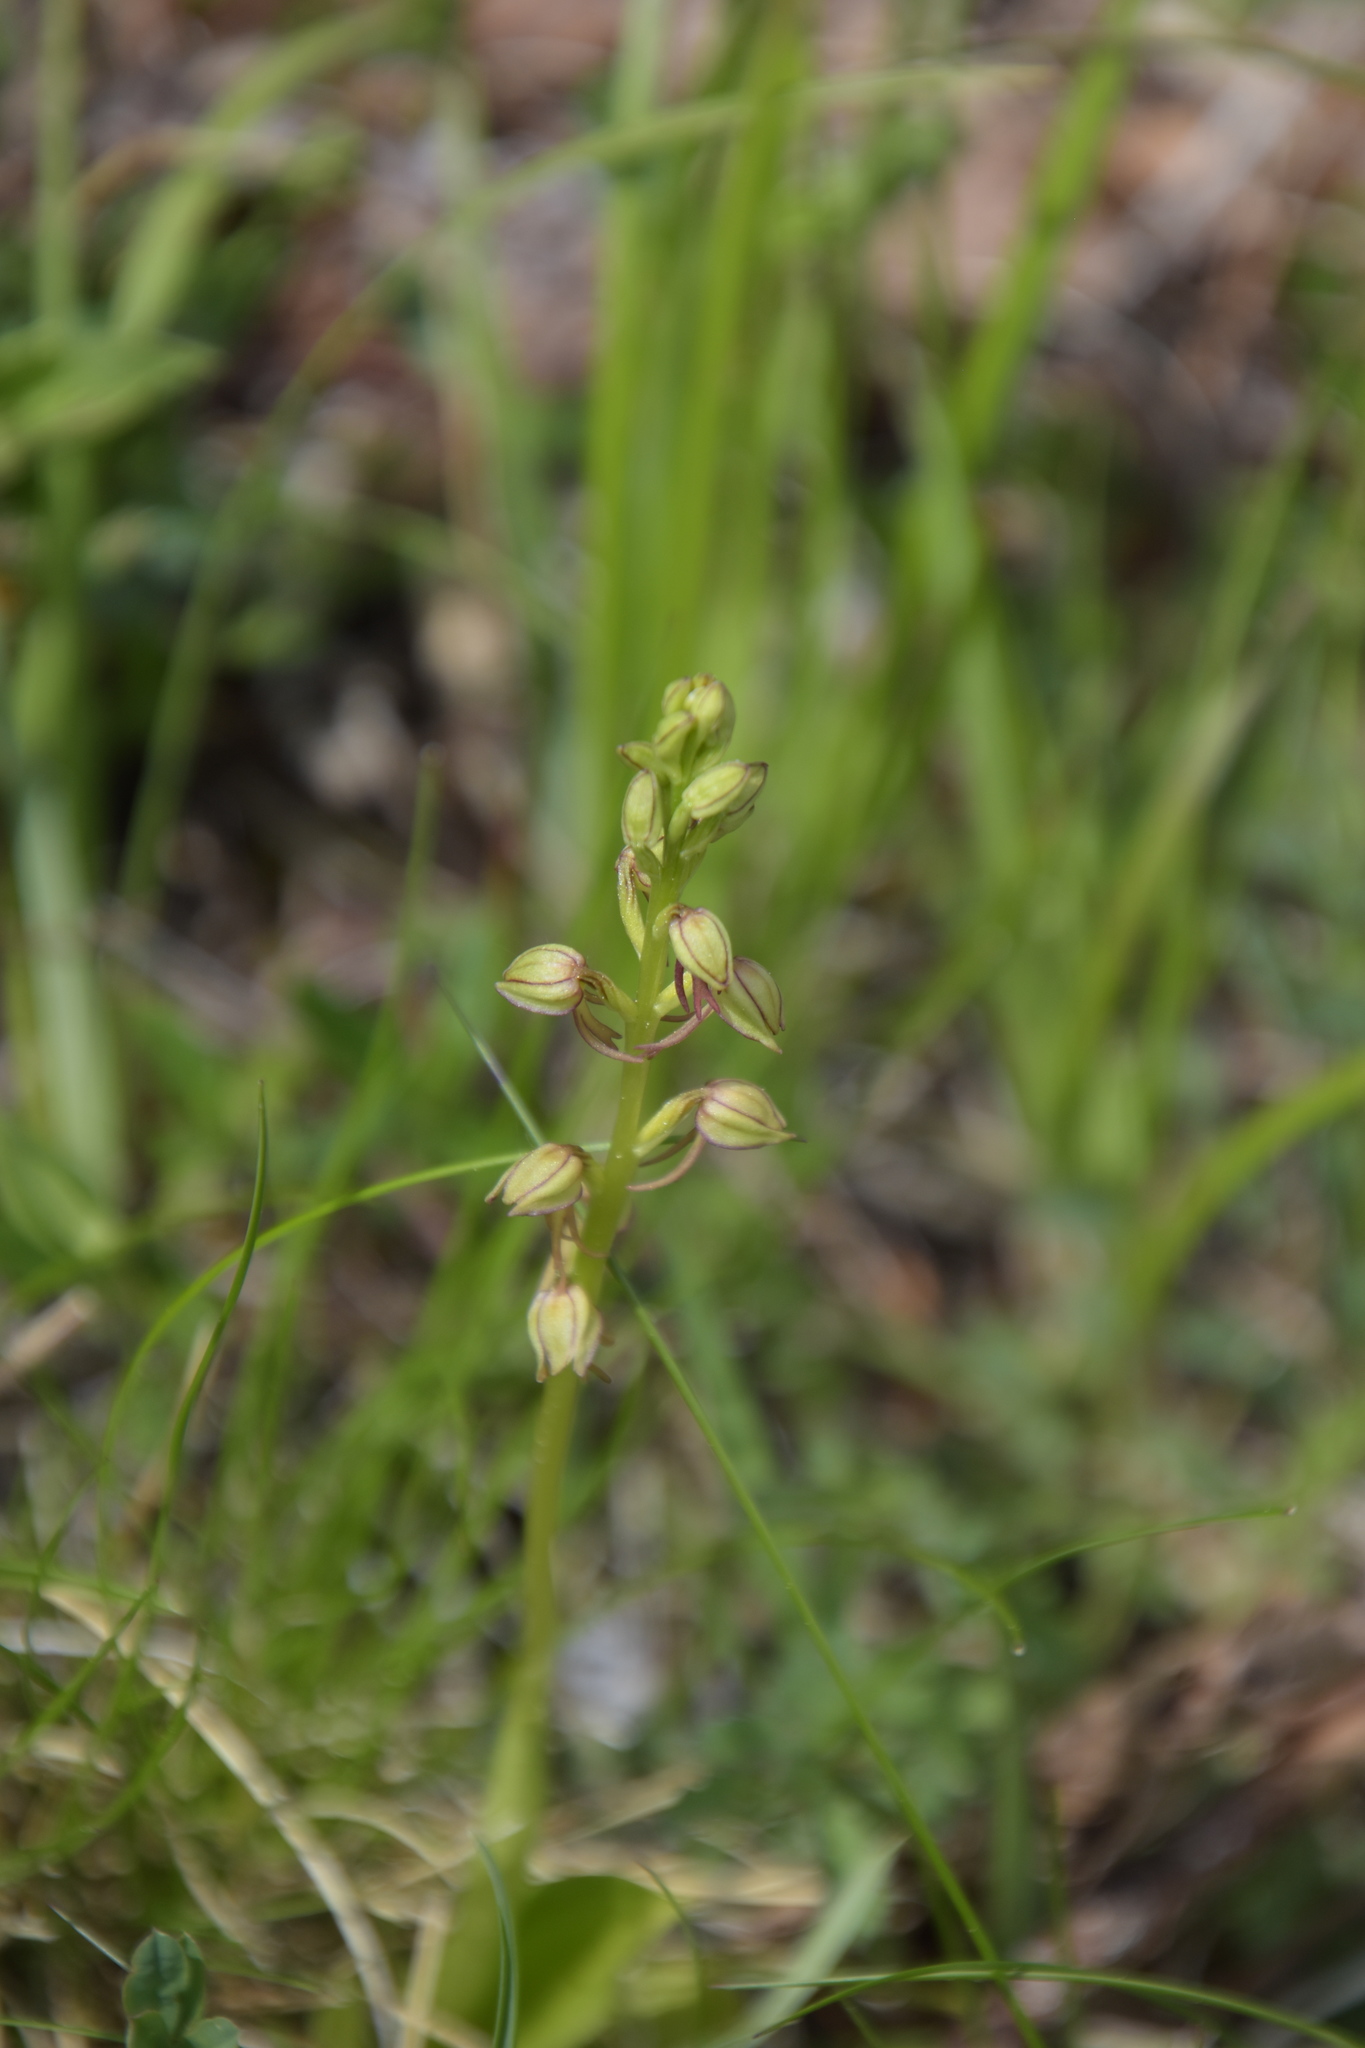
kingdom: Plantae
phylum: Tracheophyta
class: Liliopsida
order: Asparagales
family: Orchidaceae
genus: Orchis
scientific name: Orchis anthropophora
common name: Man orchid
